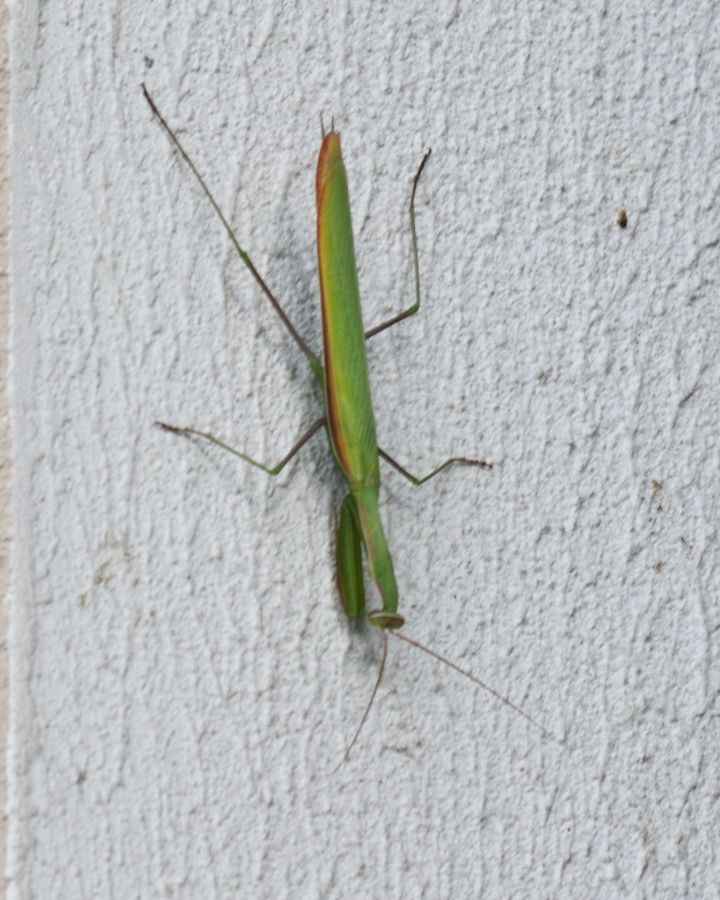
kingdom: Animalia
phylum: Arthropoda
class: Insecta
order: Mantodea
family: Mantidae
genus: Mantis
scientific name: Mantis religiosa
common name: Praying mantis
